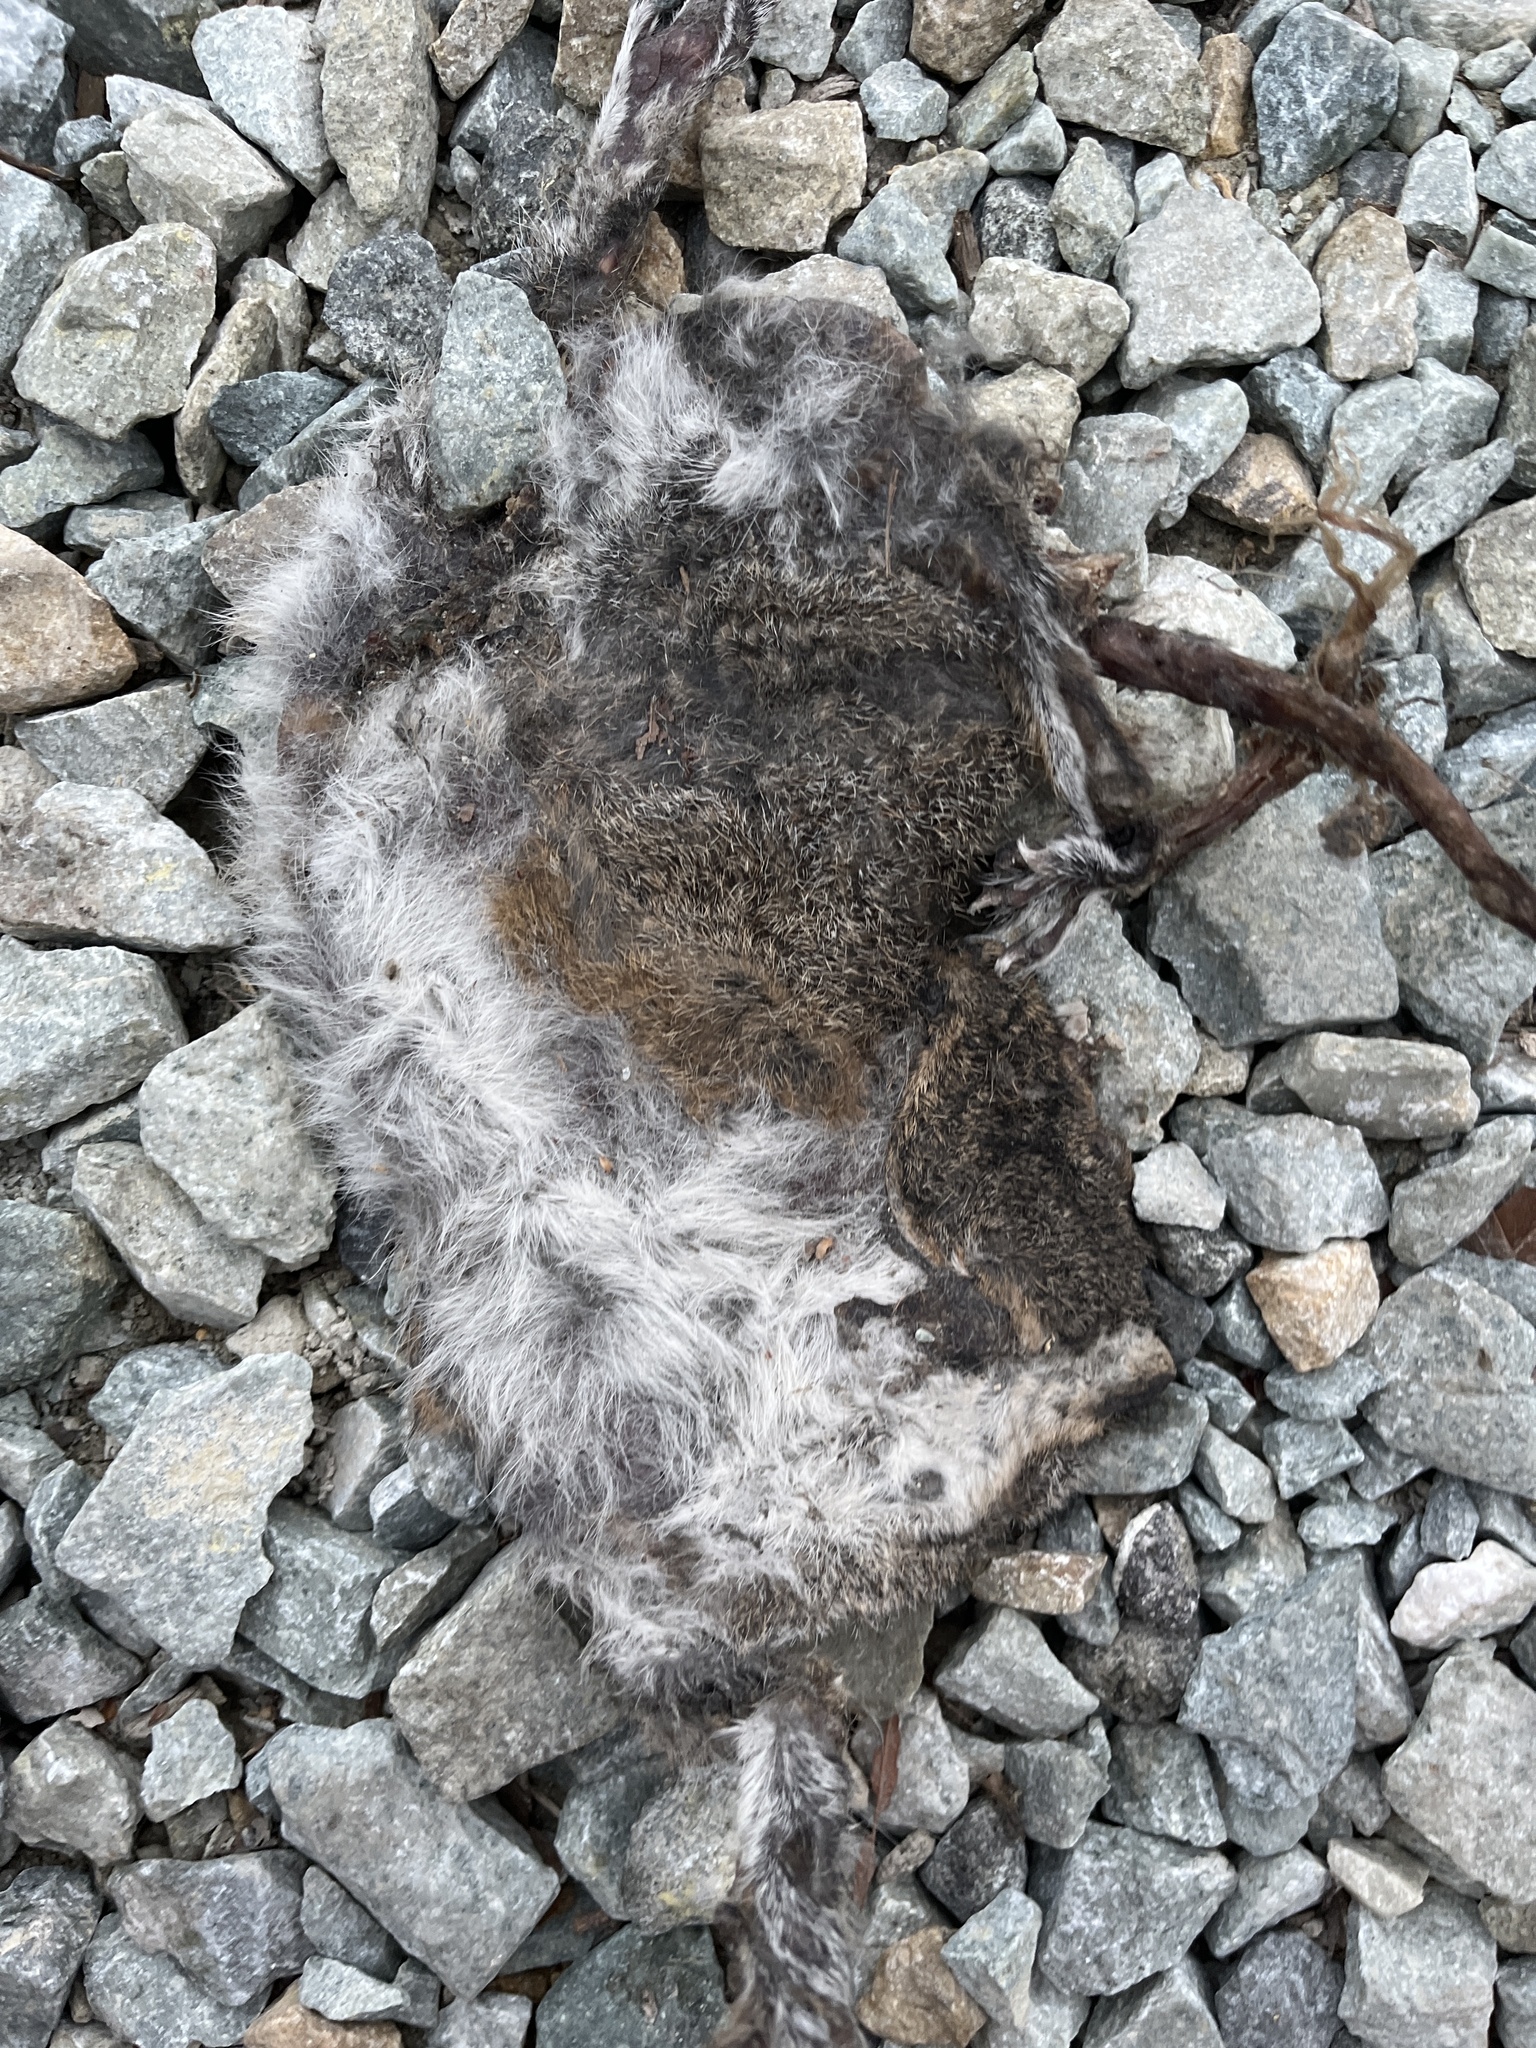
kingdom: Animalia
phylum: Chordata
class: Mammalia
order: Rodentia
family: Sciuridae
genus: Sciurus
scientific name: Sciurus carolinensis
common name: Eastern gray squirrel
